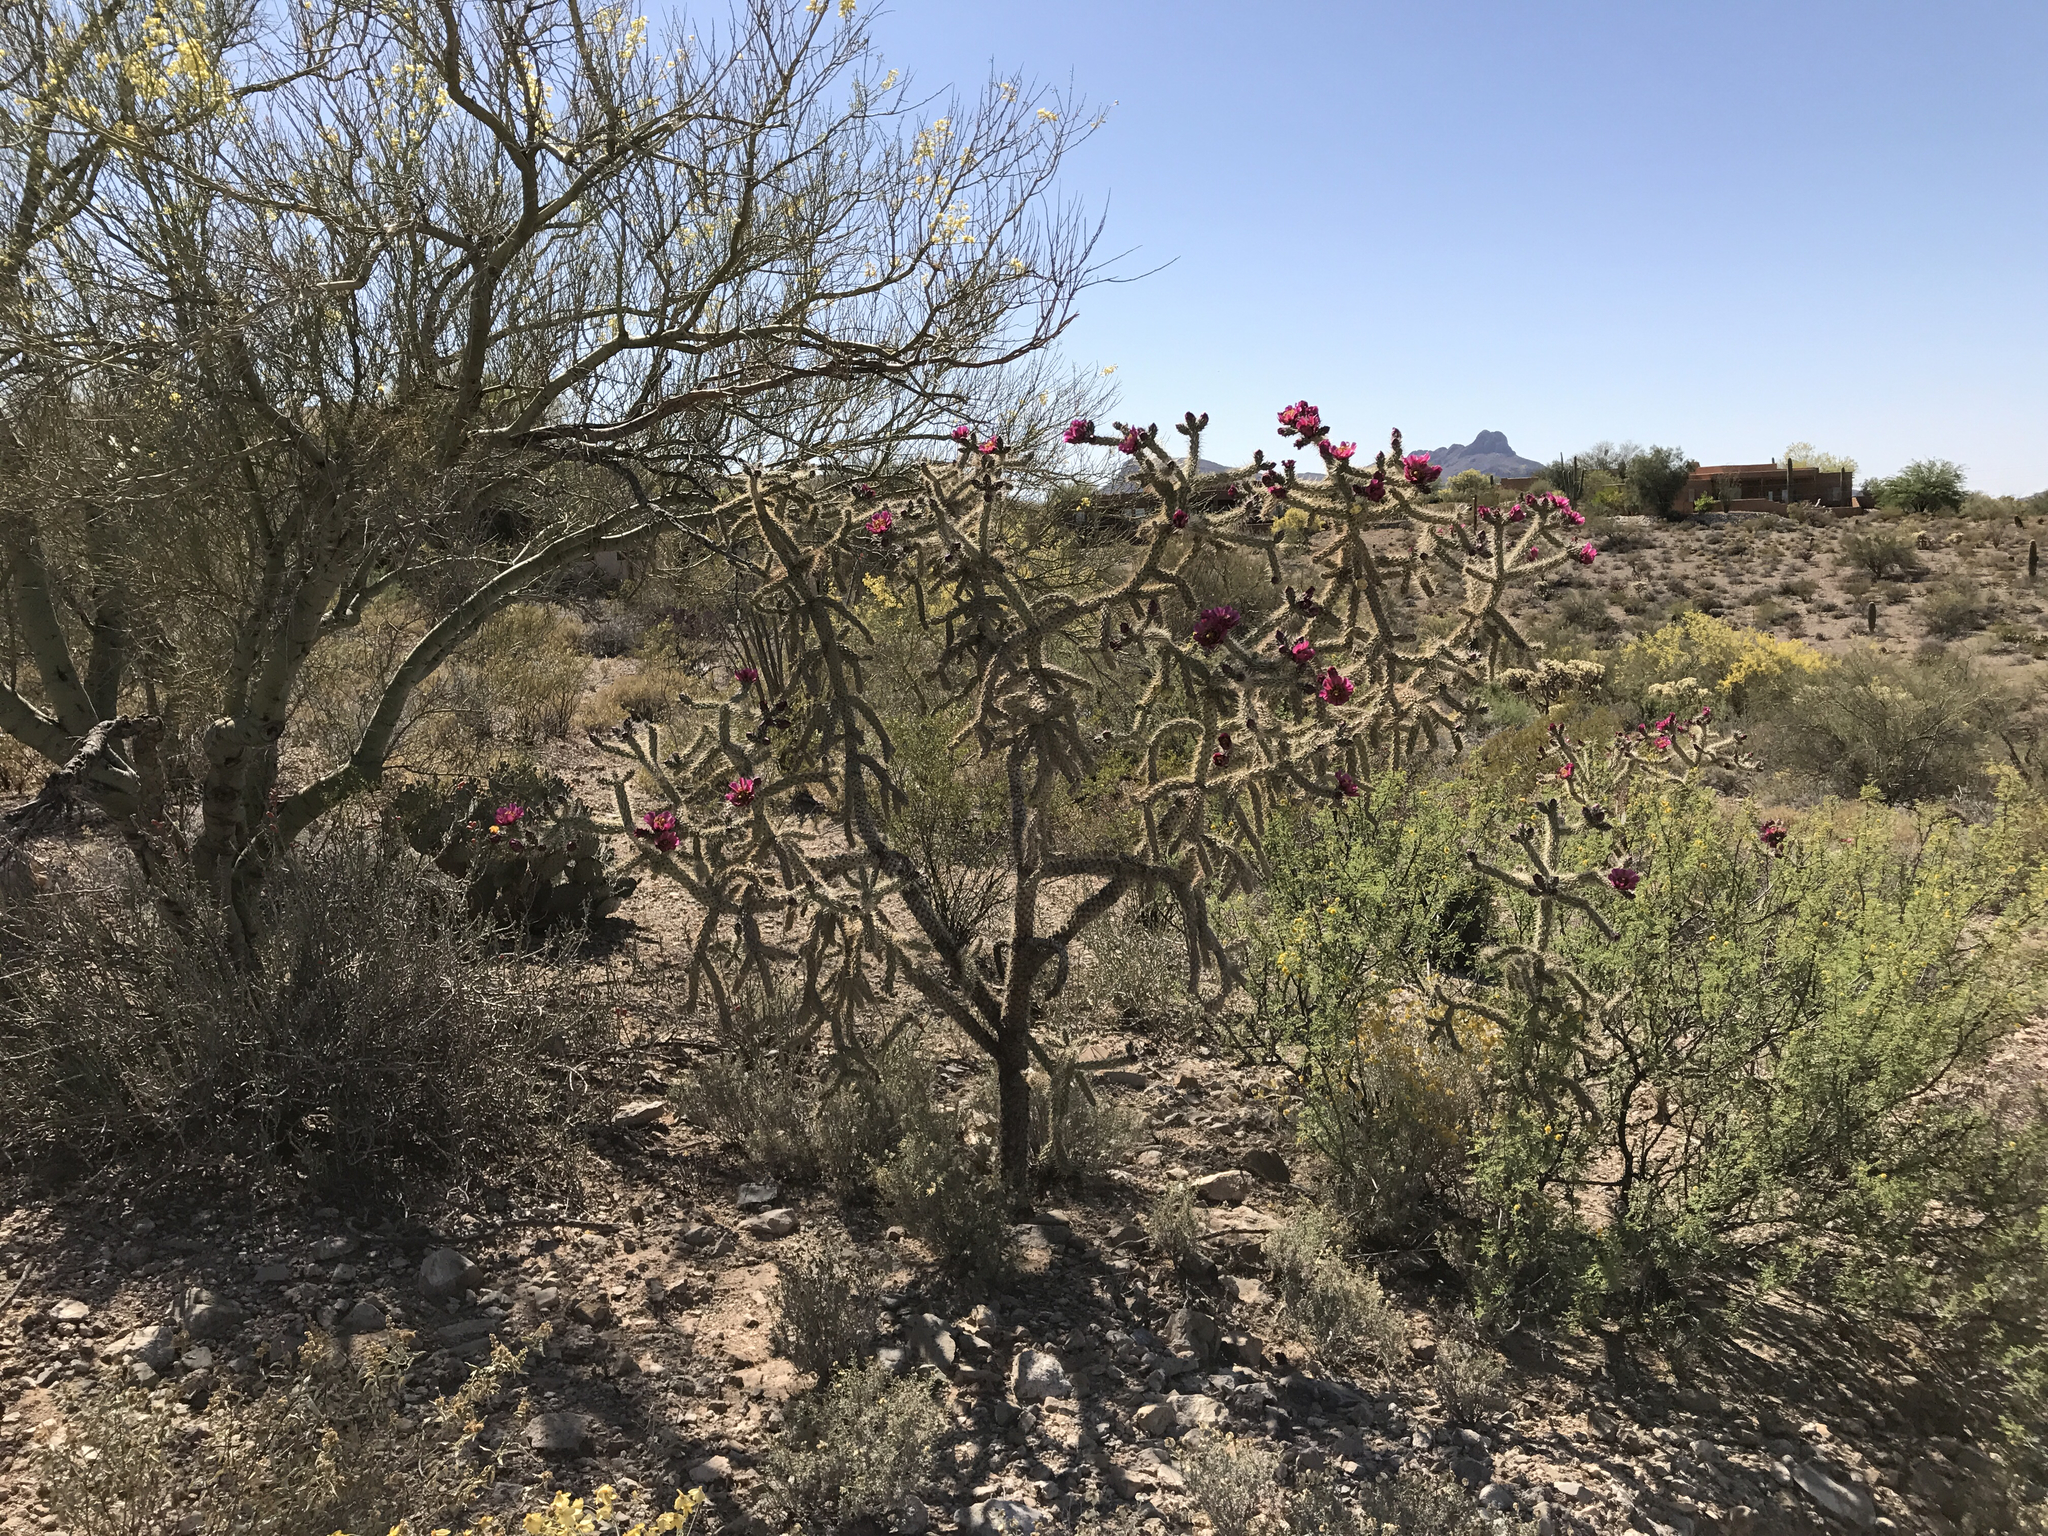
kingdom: Plantae
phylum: Tracheophyta
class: Magnoliopsida
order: Caryophyllales
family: Cactaceae
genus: Cylindropuntia
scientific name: Cylindropuntia imbricata
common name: Candelabrum cactus
